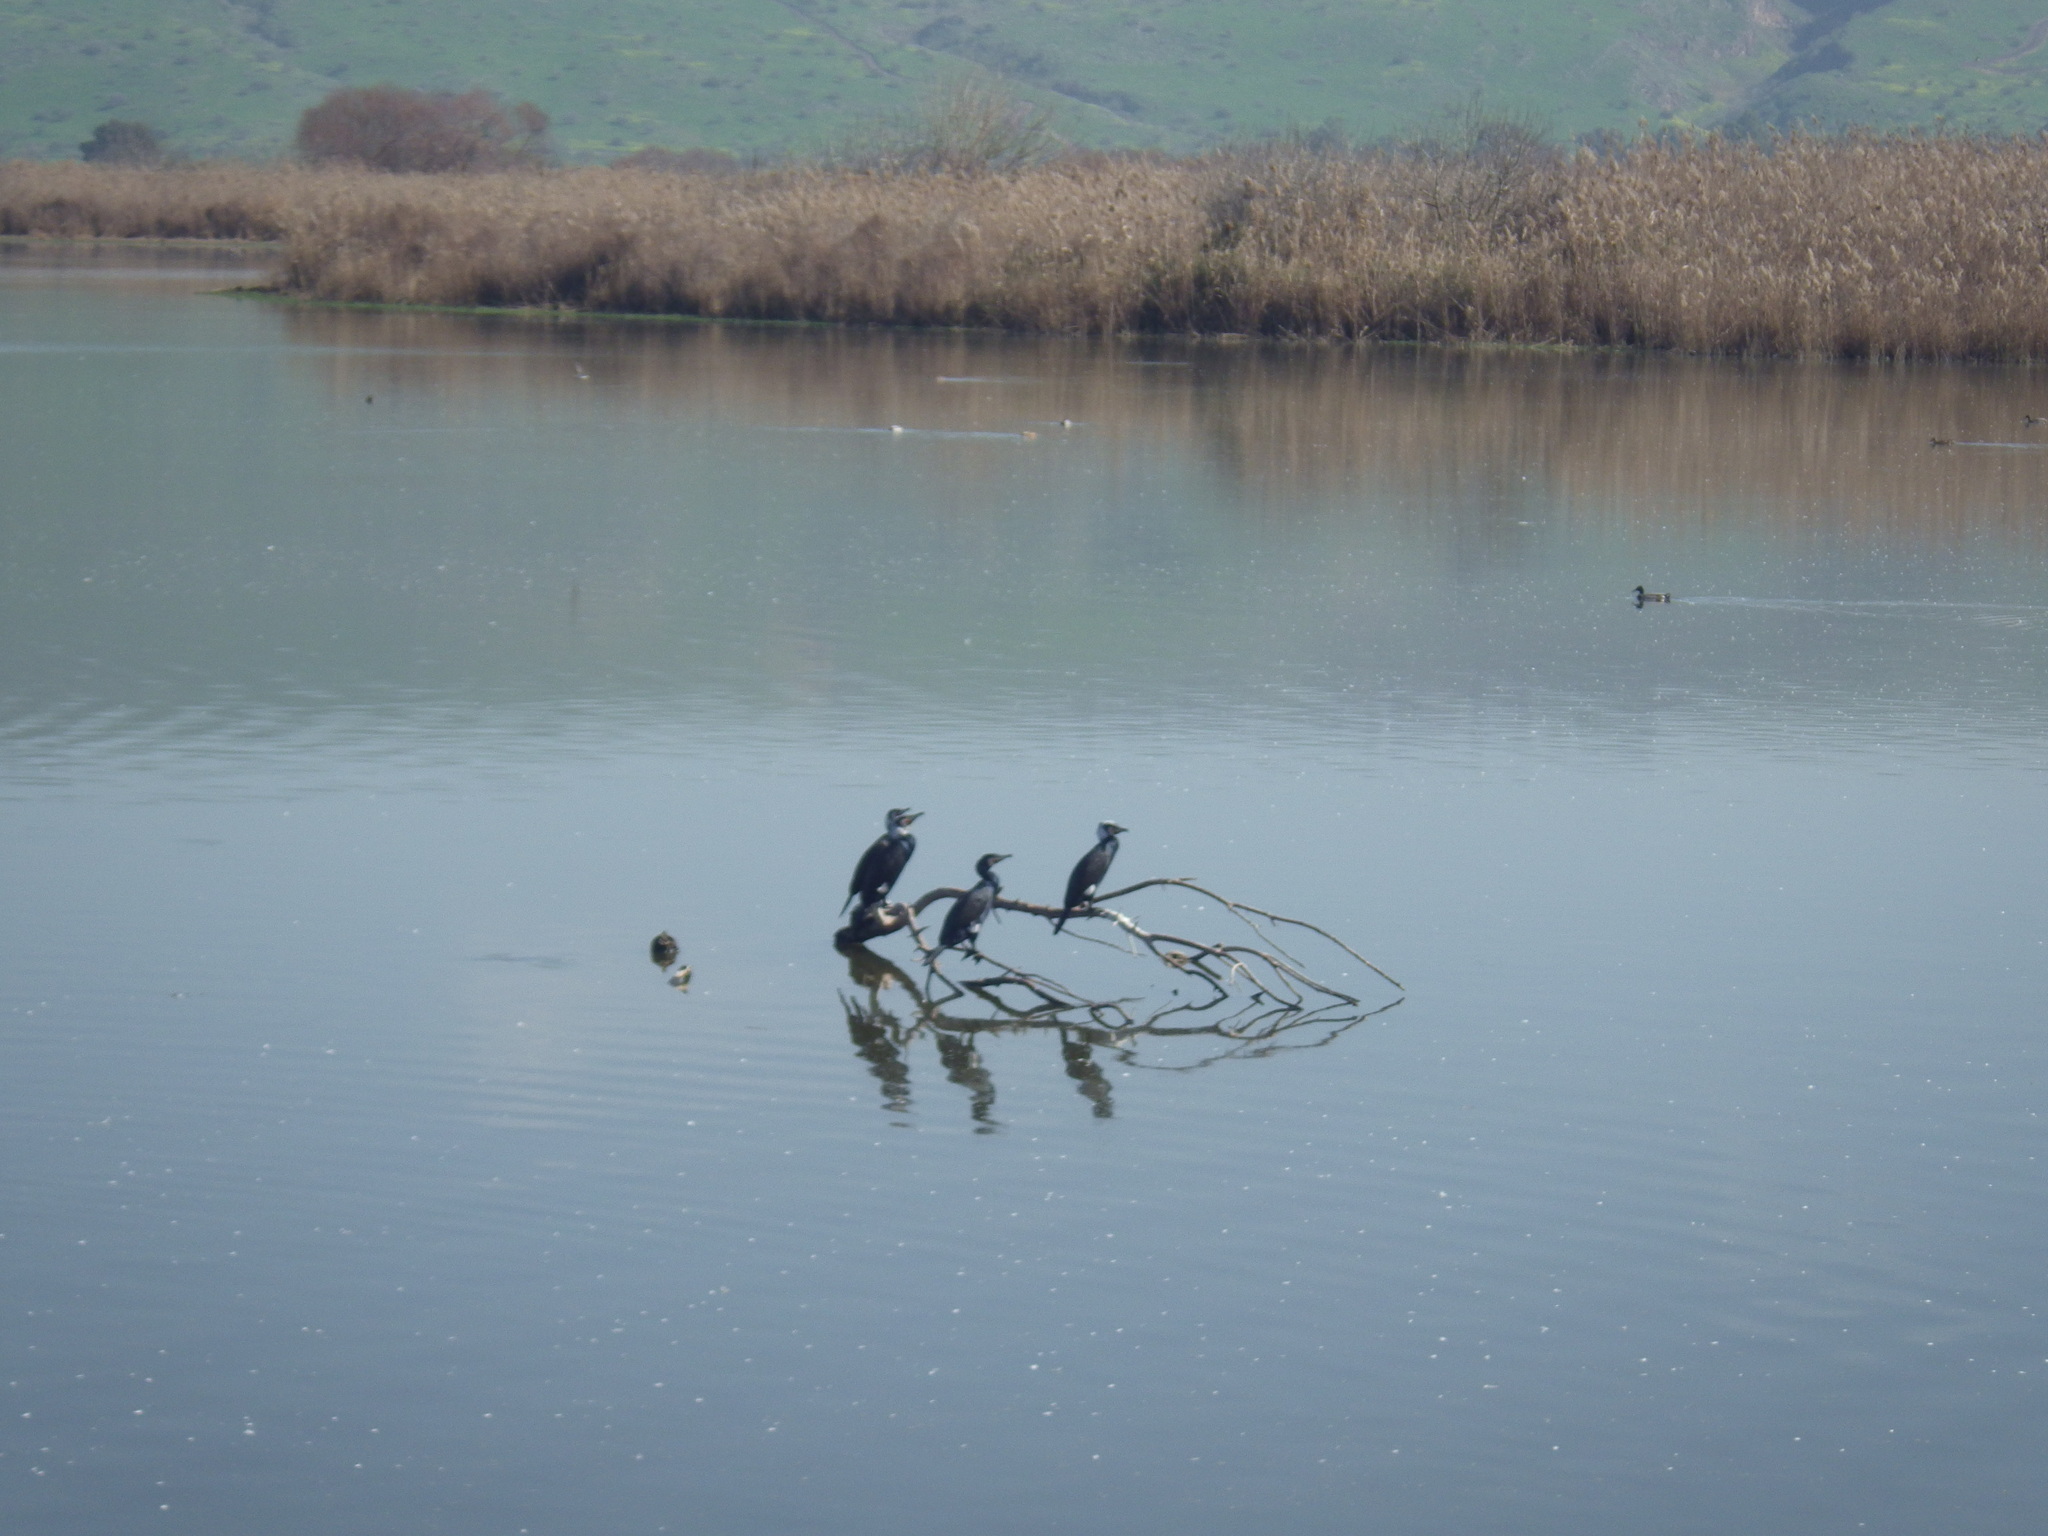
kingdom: Animalia
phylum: Chordata
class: Aves
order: Suliformes
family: Phalacrocoracidae
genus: Phalacrocorax
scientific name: Phalacrocorax carbo
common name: Great cormorant
